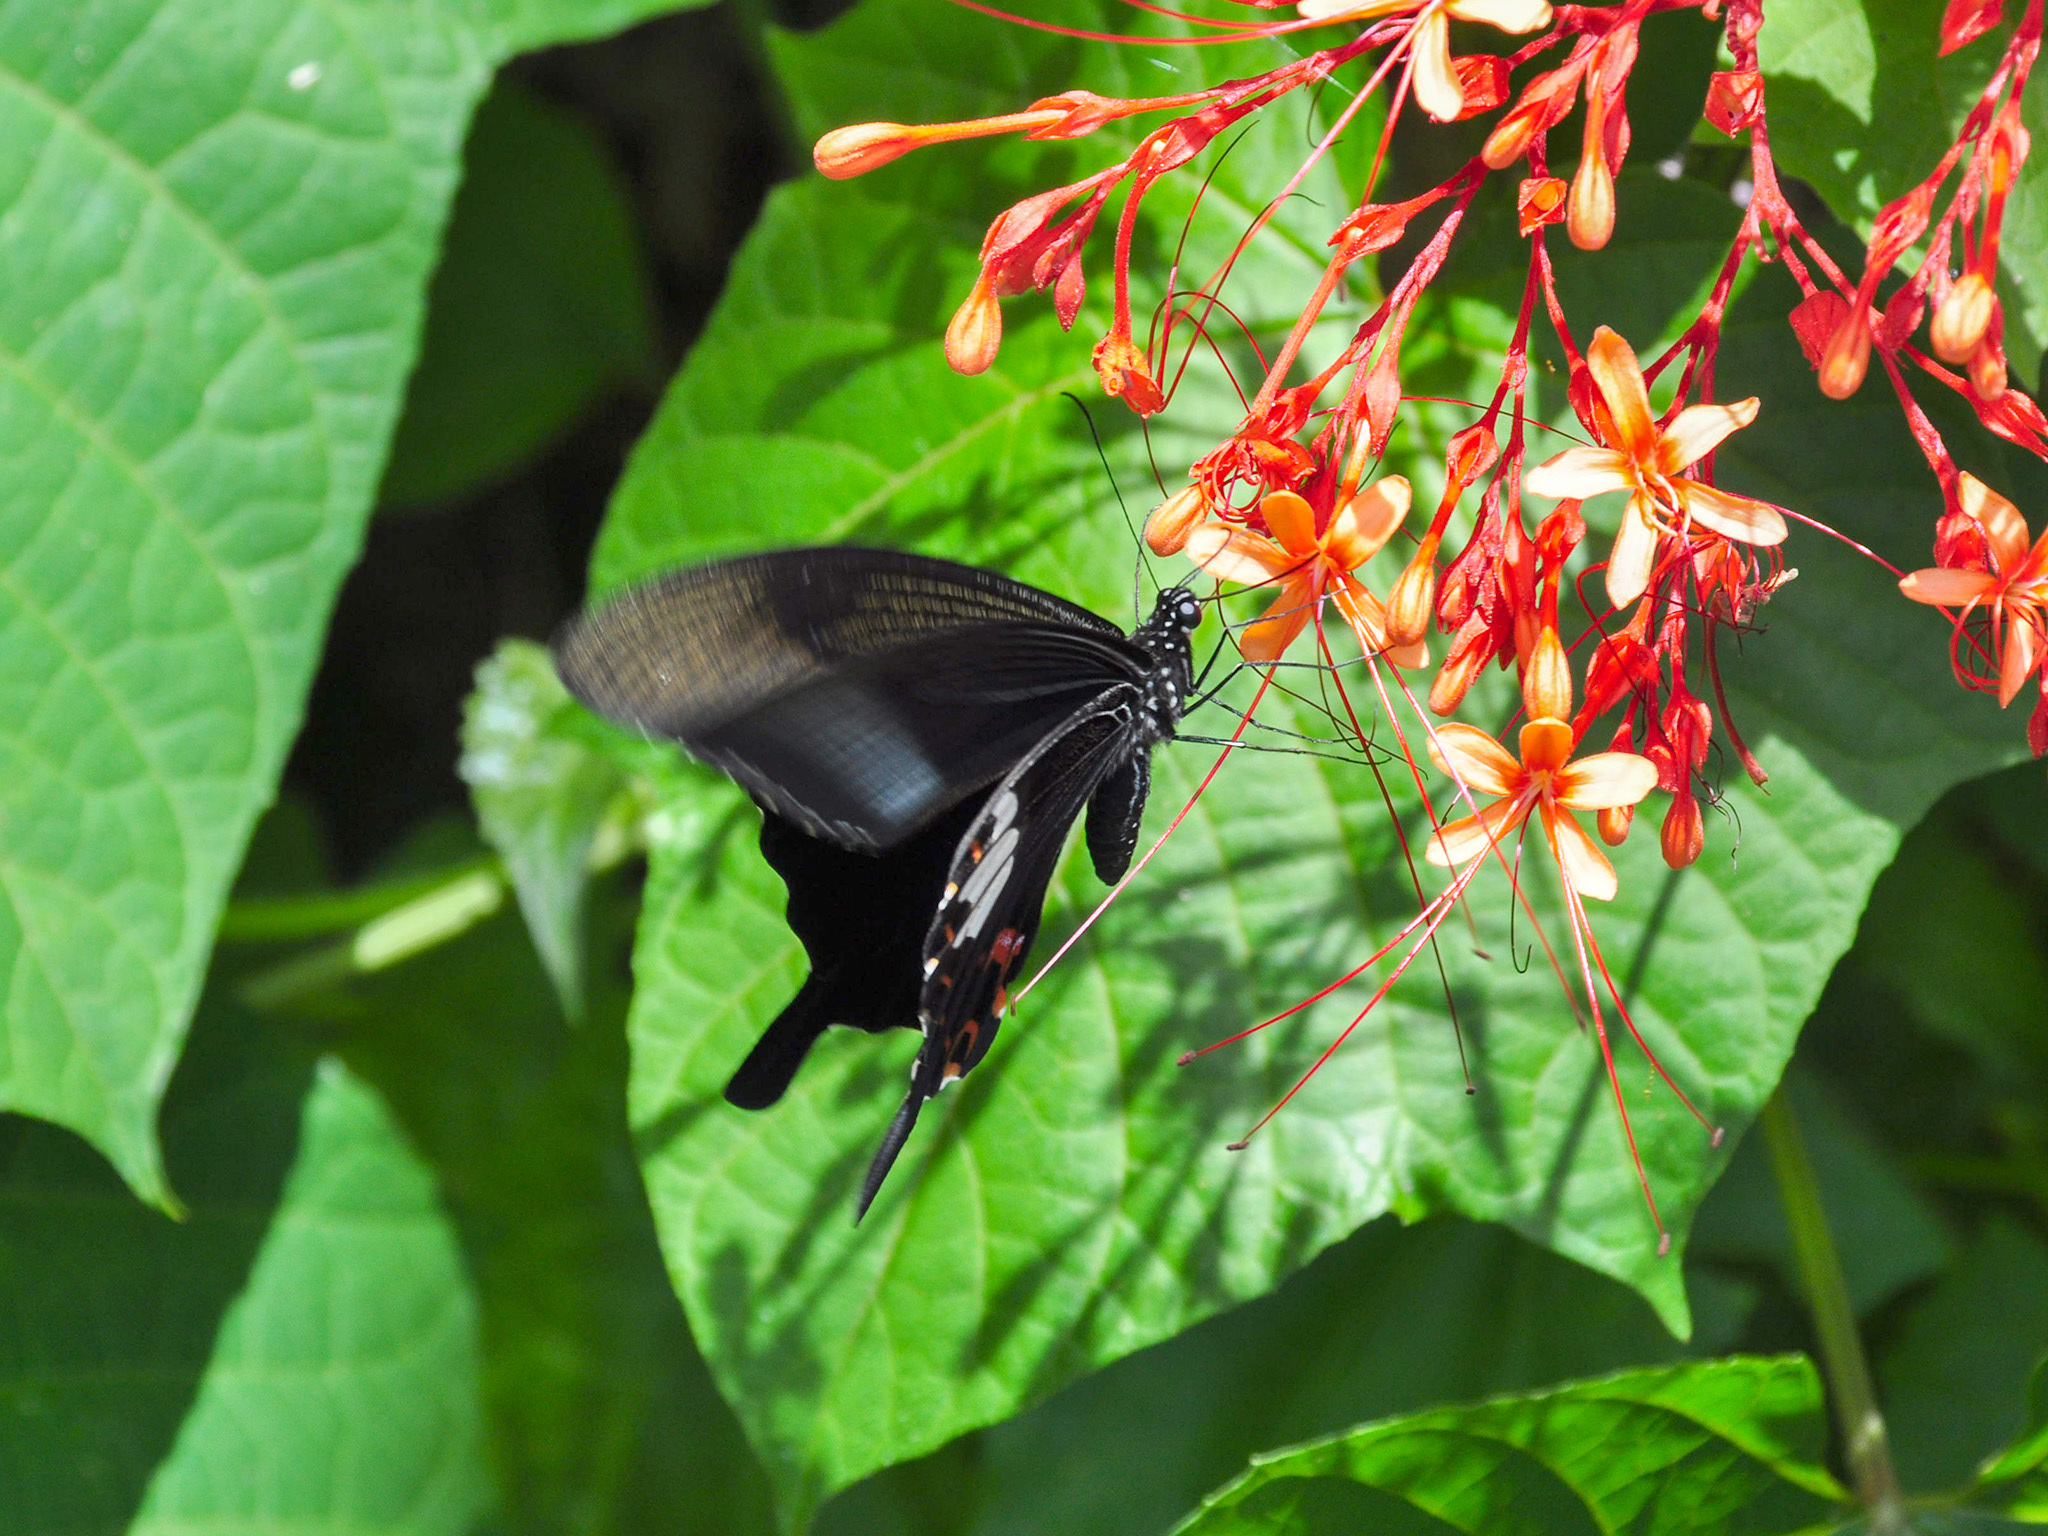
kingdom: Animalia
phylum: Arthropoda
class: Insecta
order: Lepidoptera
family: Papilionidae
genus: Papilio
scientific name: Papilio helenus
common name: Red helen
